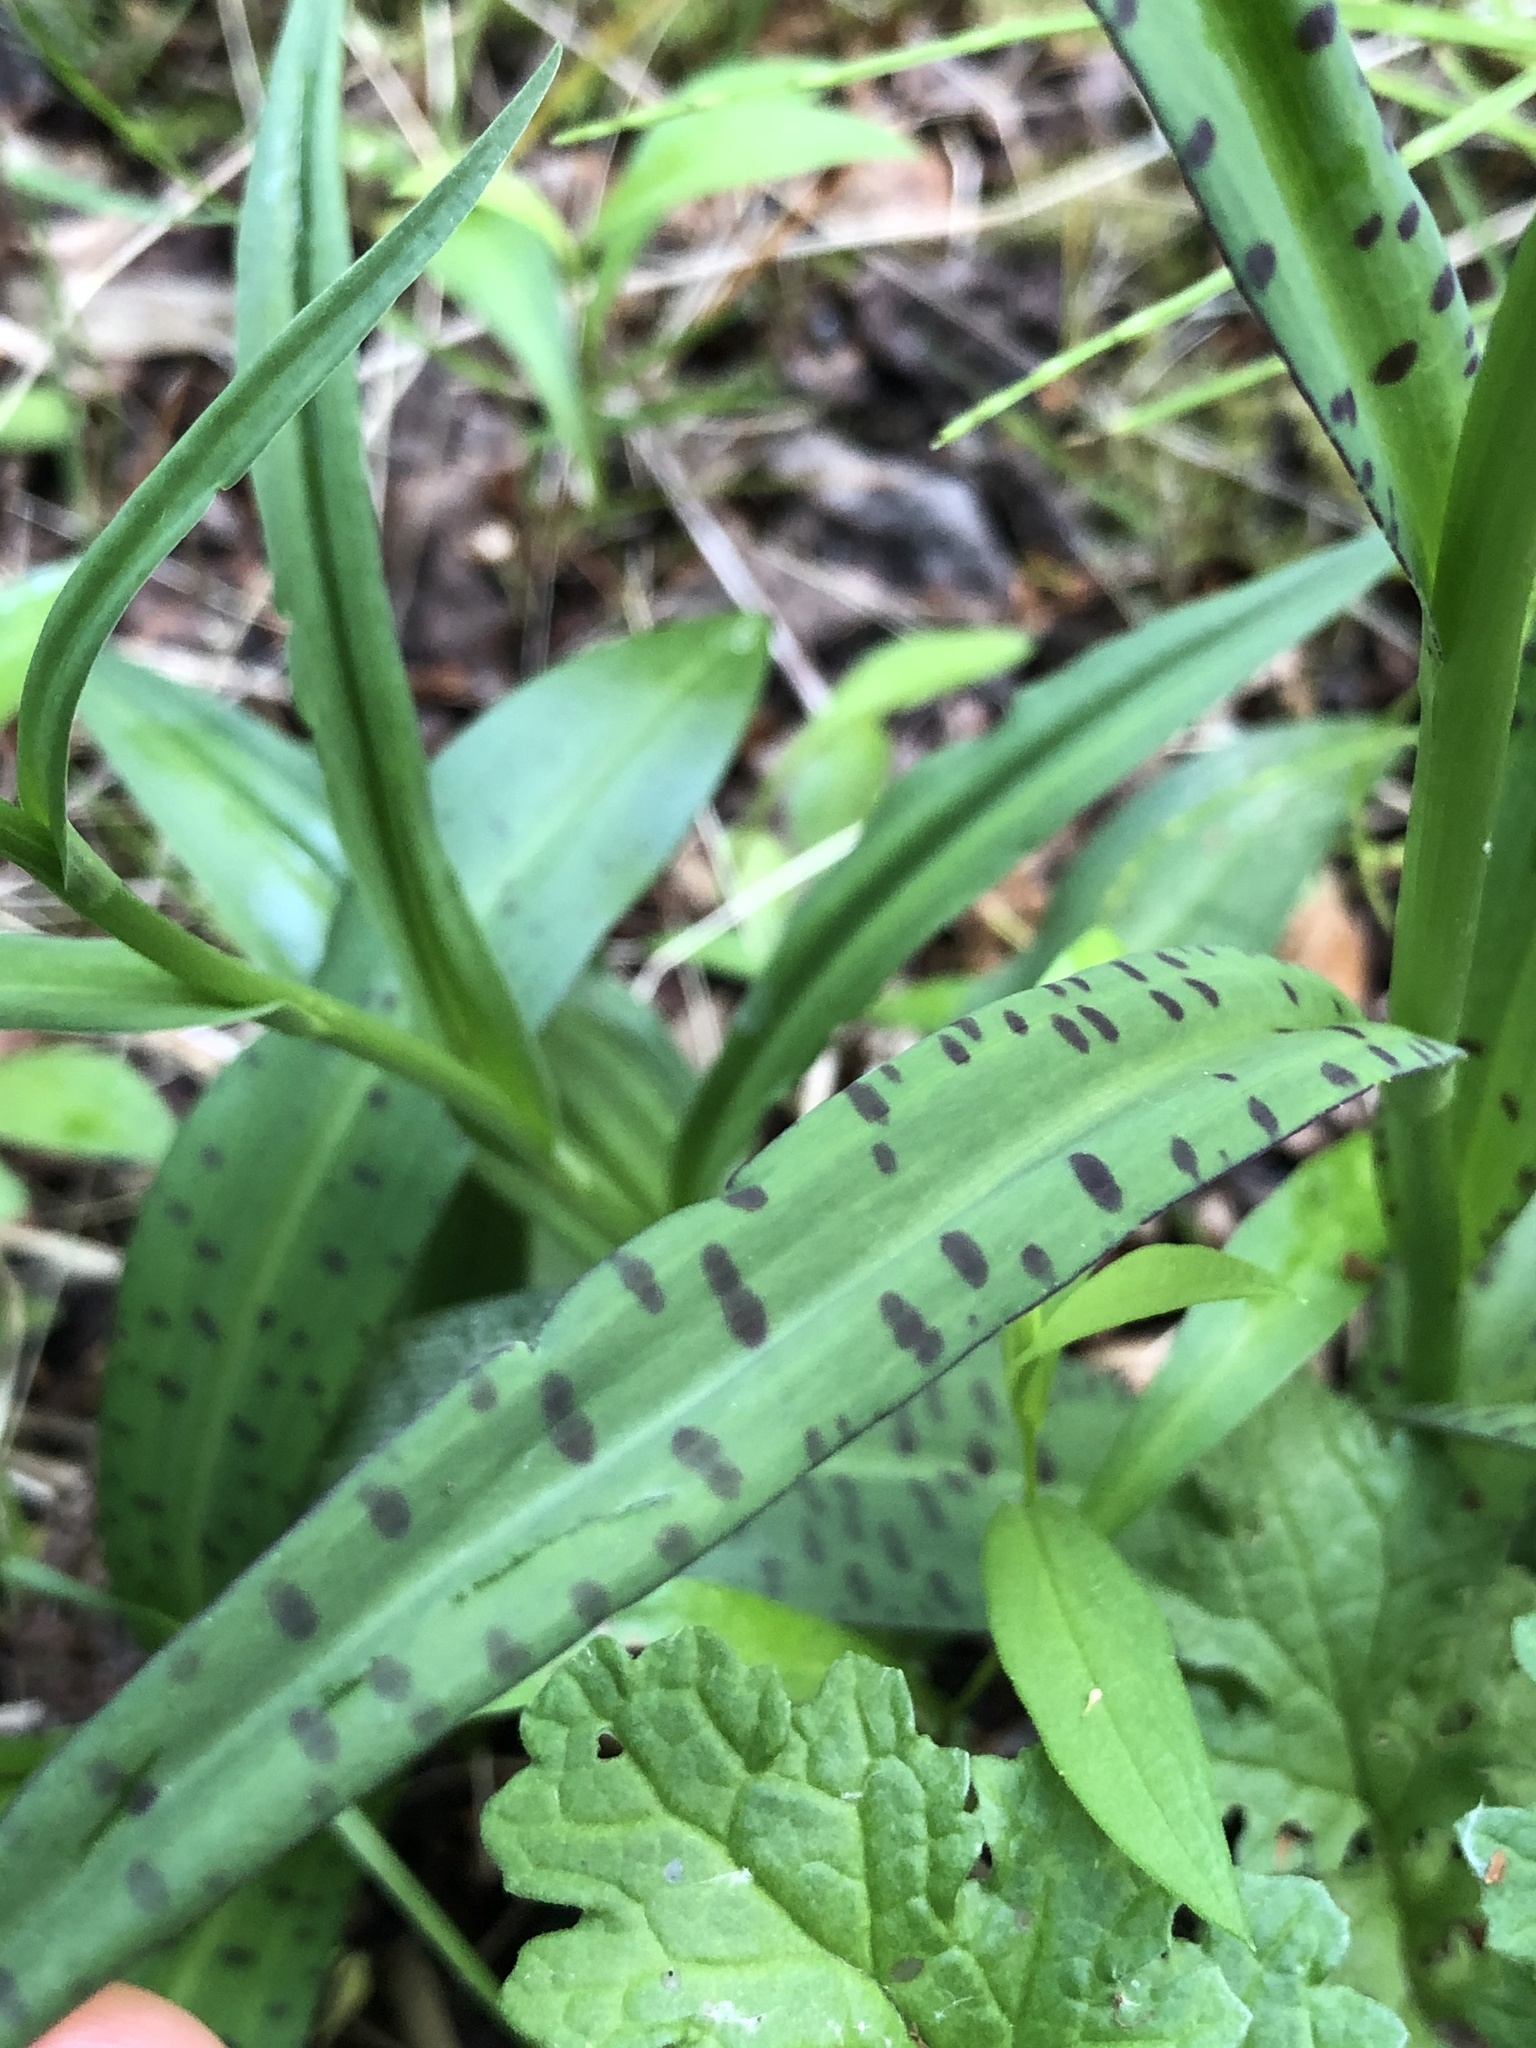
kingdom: Plantae
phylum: Tracheophyta
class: Liliopsida
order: Asparagales
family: Orchidaceae
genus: Dactylorhiza
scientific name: Dactylorhiza maculata
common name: Heath spotted-orchid
